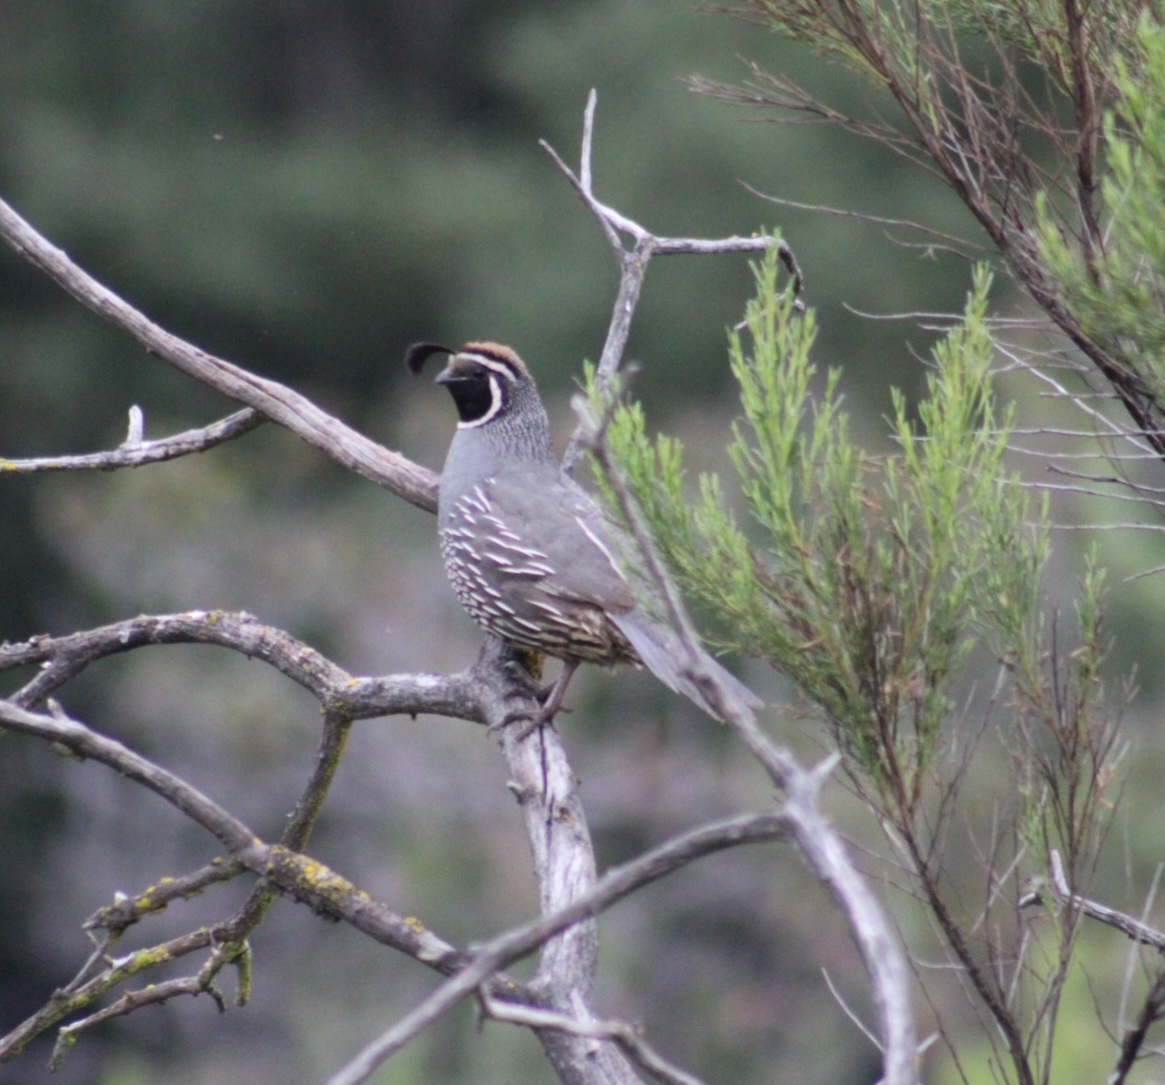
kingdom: Animalia
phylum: Chordata
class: Aves
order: Galliformes
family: Odontophoridae
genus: Callipepla
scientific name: Callipepla californica
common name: California quail
